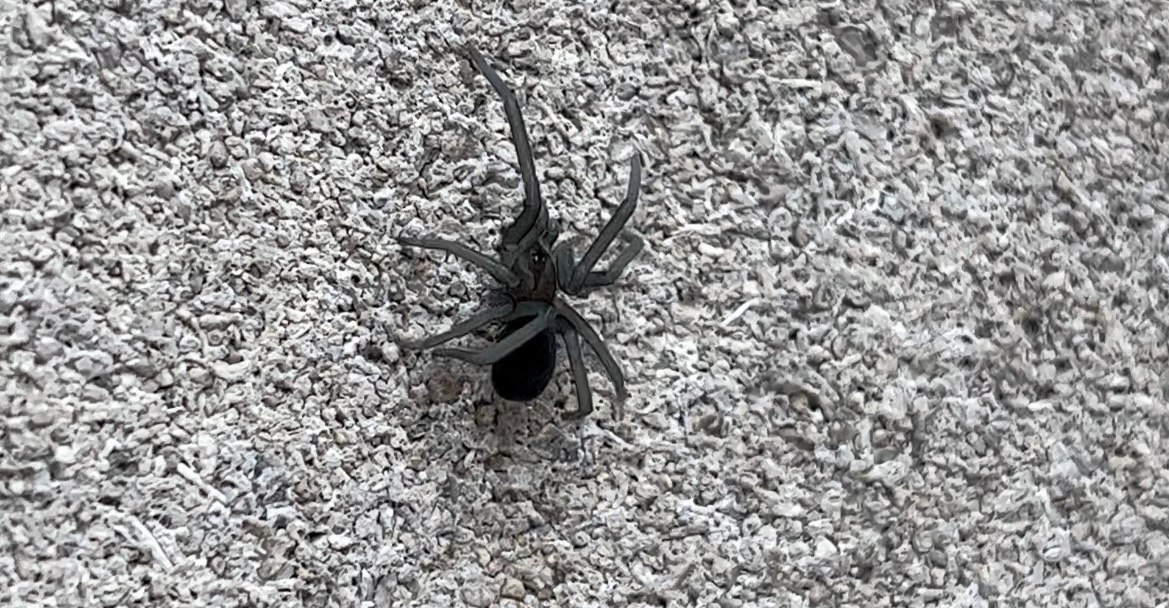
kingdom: Animalia
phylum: Arthropoda
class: Arachnida
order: Araneae
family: Filistatidae
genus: Kukulcania
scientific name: Kukulcania hibernalis
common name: Crevice weaver
